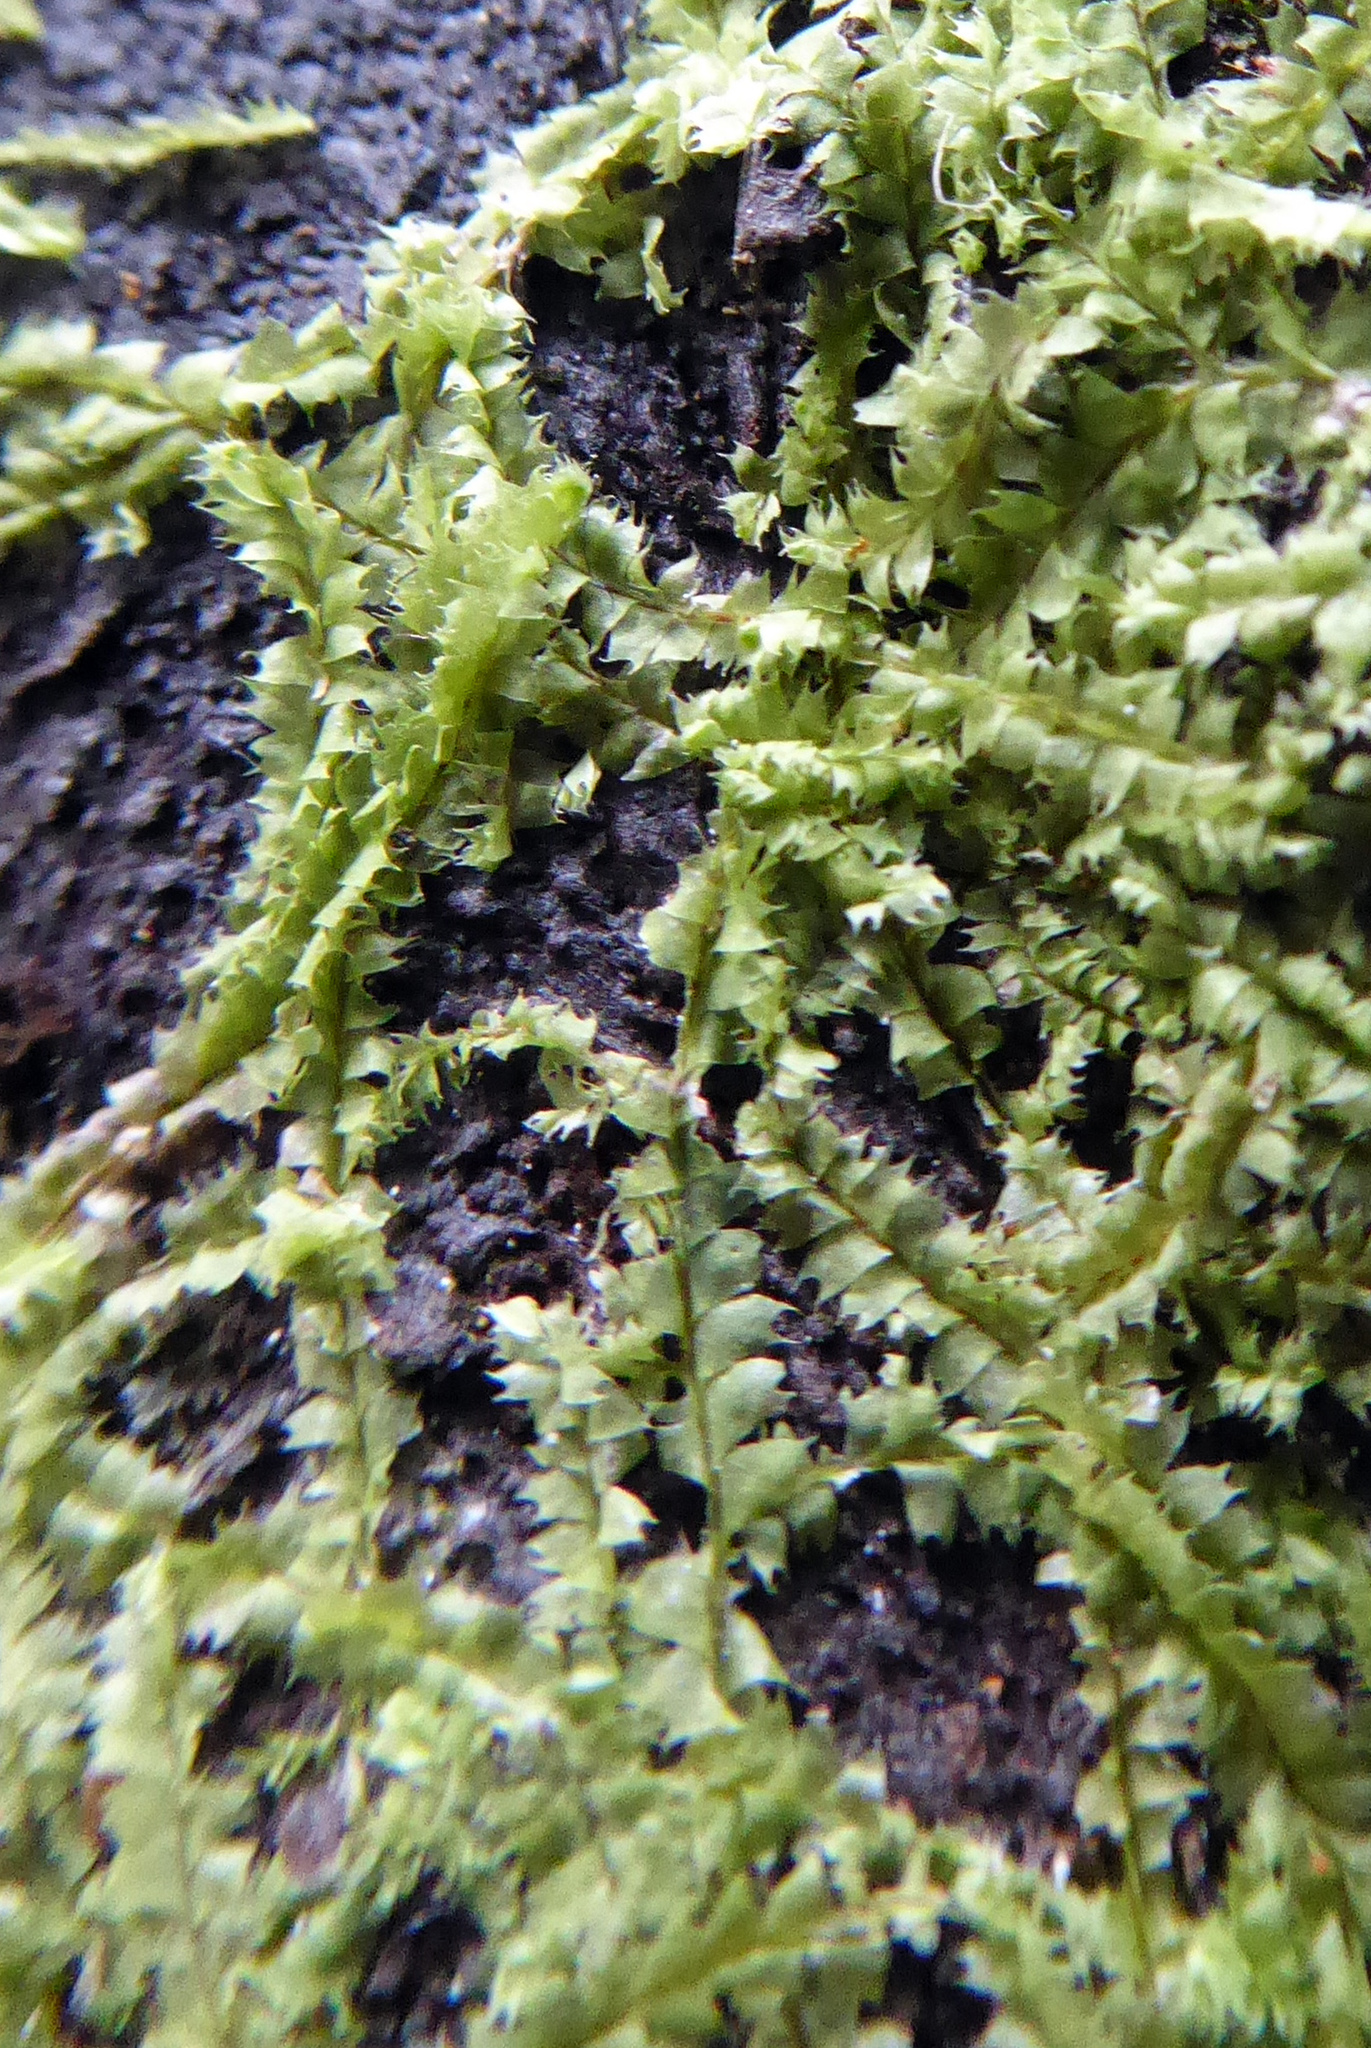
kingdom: Plantae
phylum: Marchantiophyta
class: Jungermanniopsida
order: Jungermanniales
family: Lophocoleaceae
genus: Lophocolea
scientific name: Lophocolea lenta
